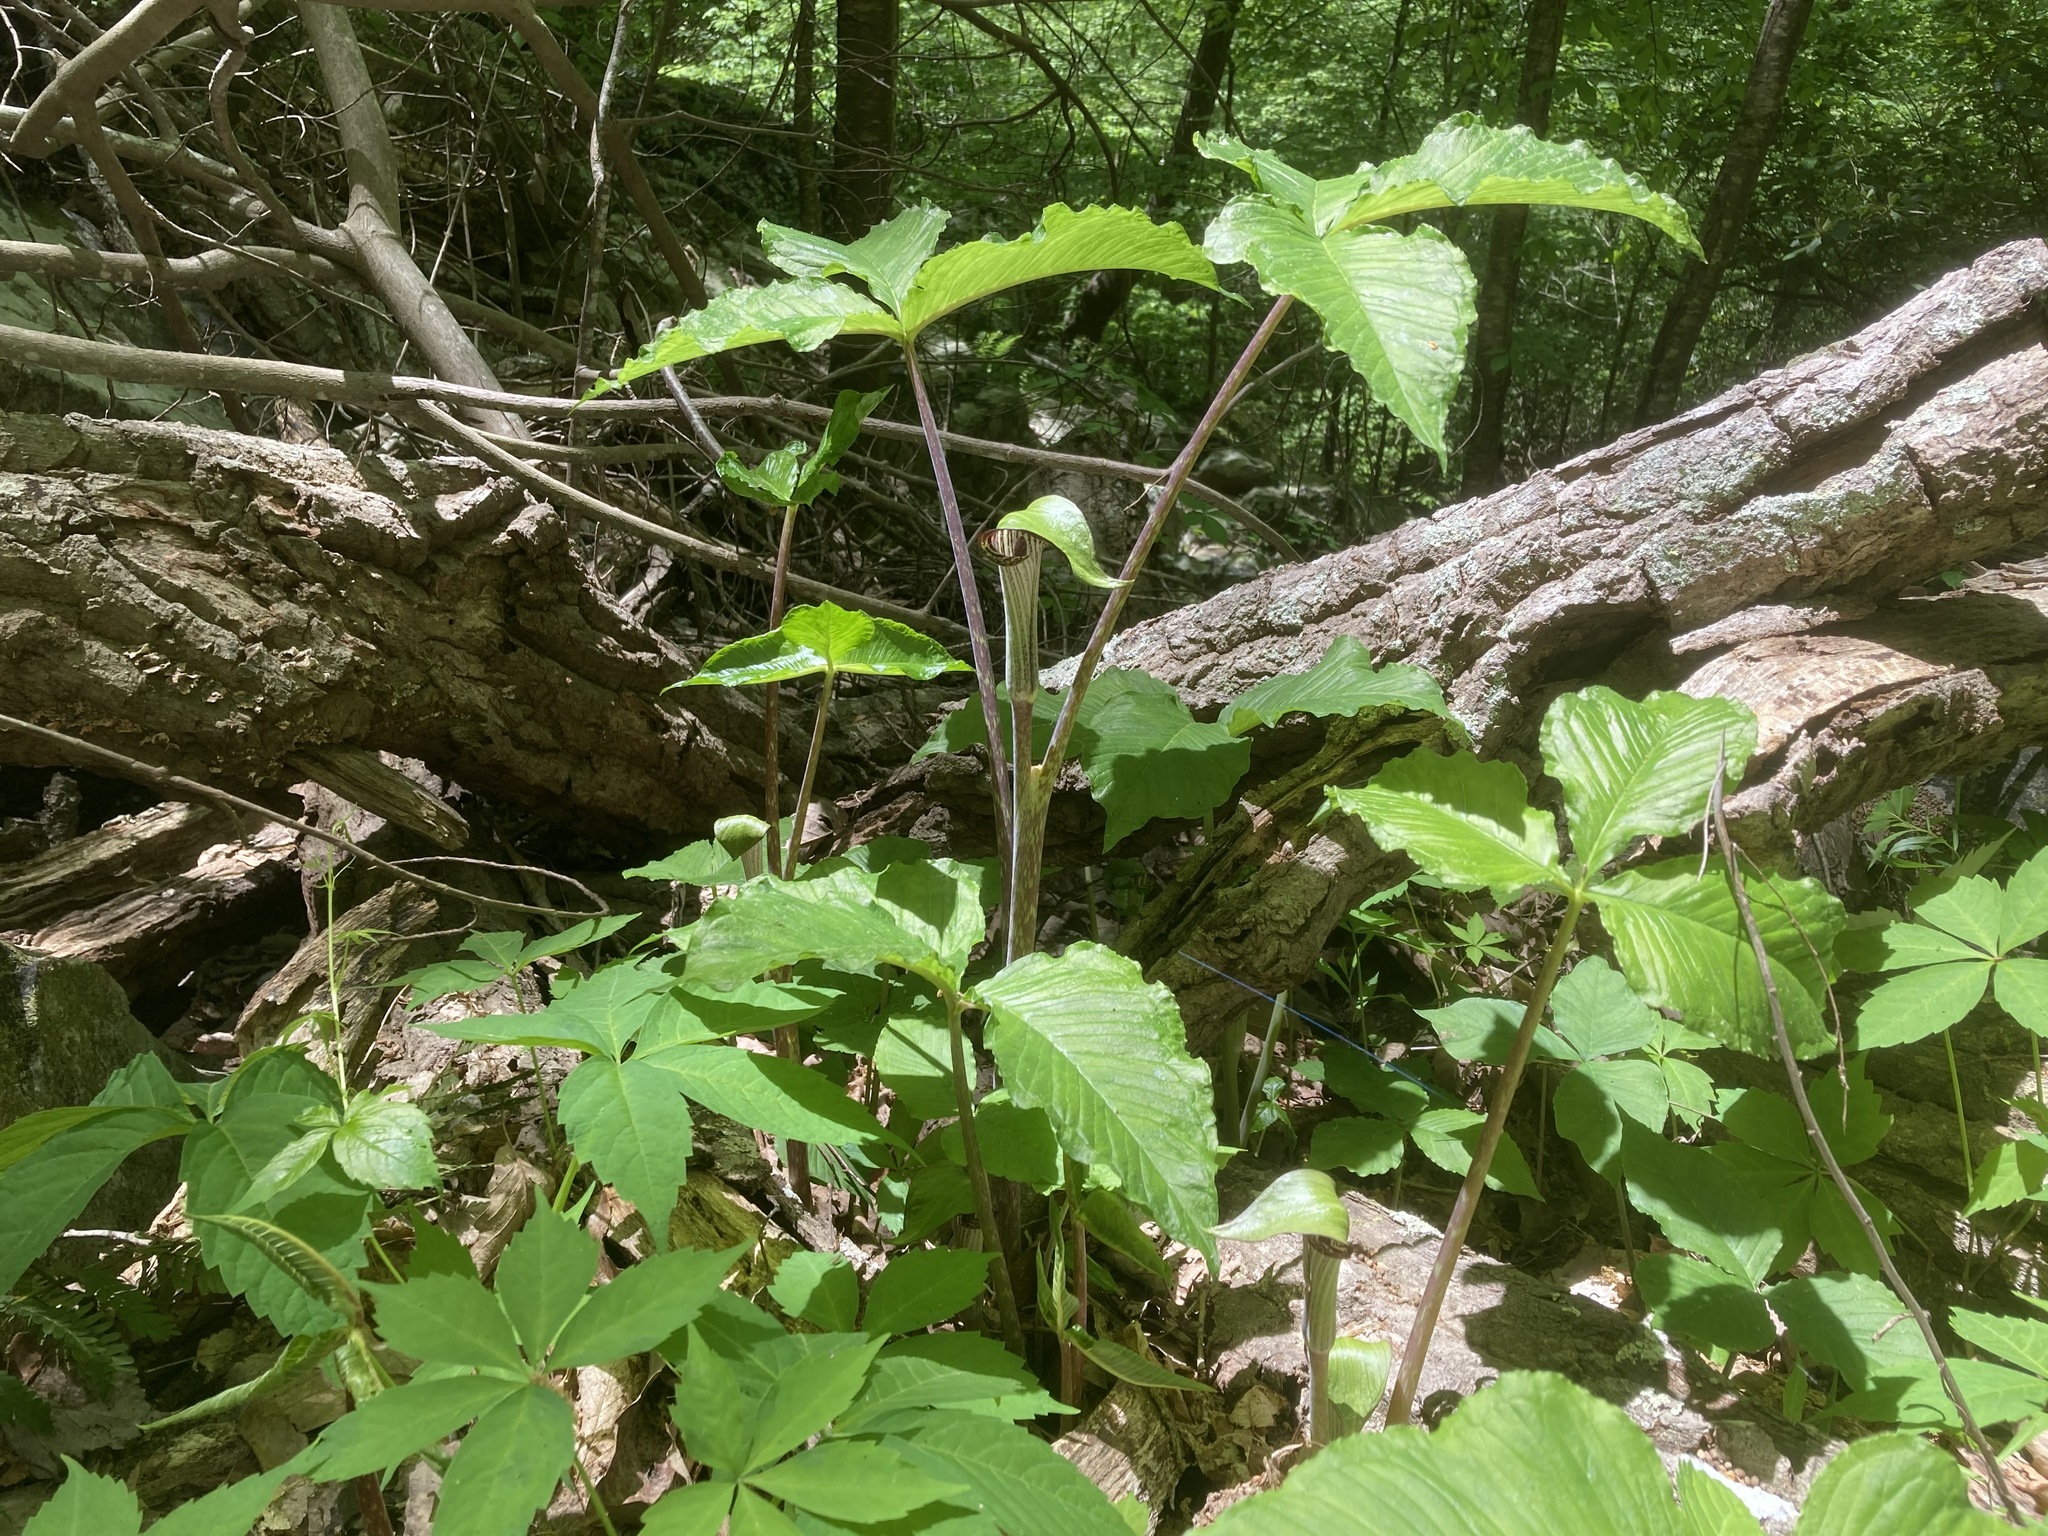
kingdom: Plantae
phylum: Tracheophyta
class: Liliopsida
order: Alismatales
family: Araceae
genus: Arisaema
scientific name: Arisaema triphyllum
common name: Jack-in-the-pulpit
